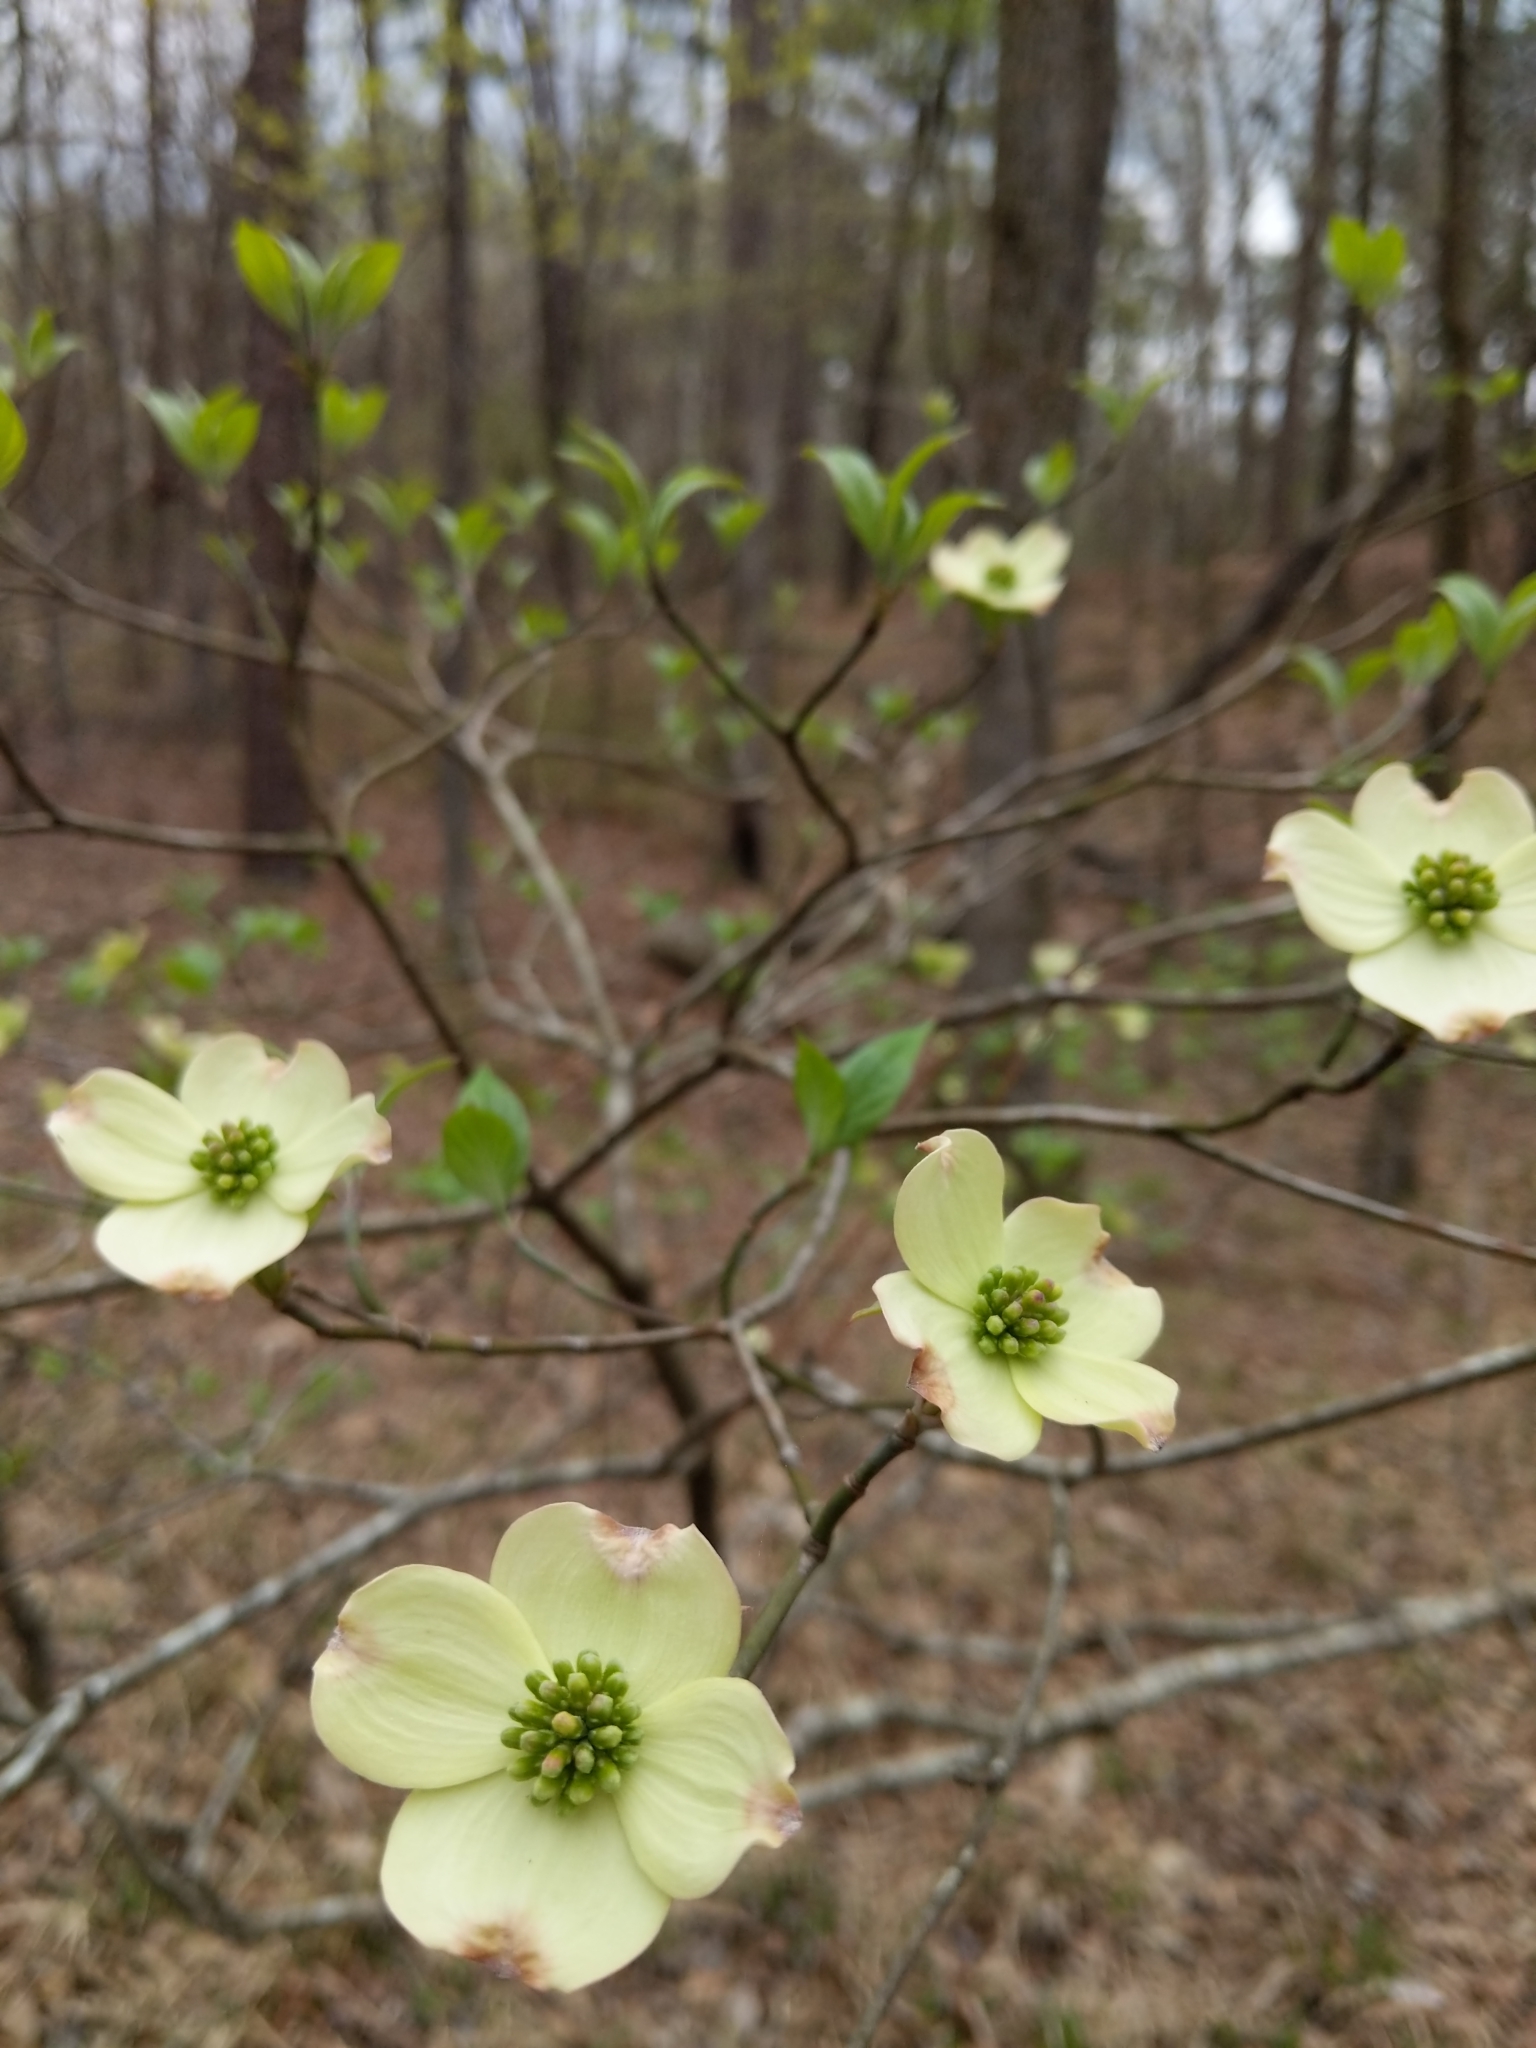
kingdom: Plantae
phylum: Tracheophyta
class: Magnoliopsida
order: Cornales
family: Cornaceae
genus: Cornus
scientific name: Cornus florida
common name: Flowering dogwood
